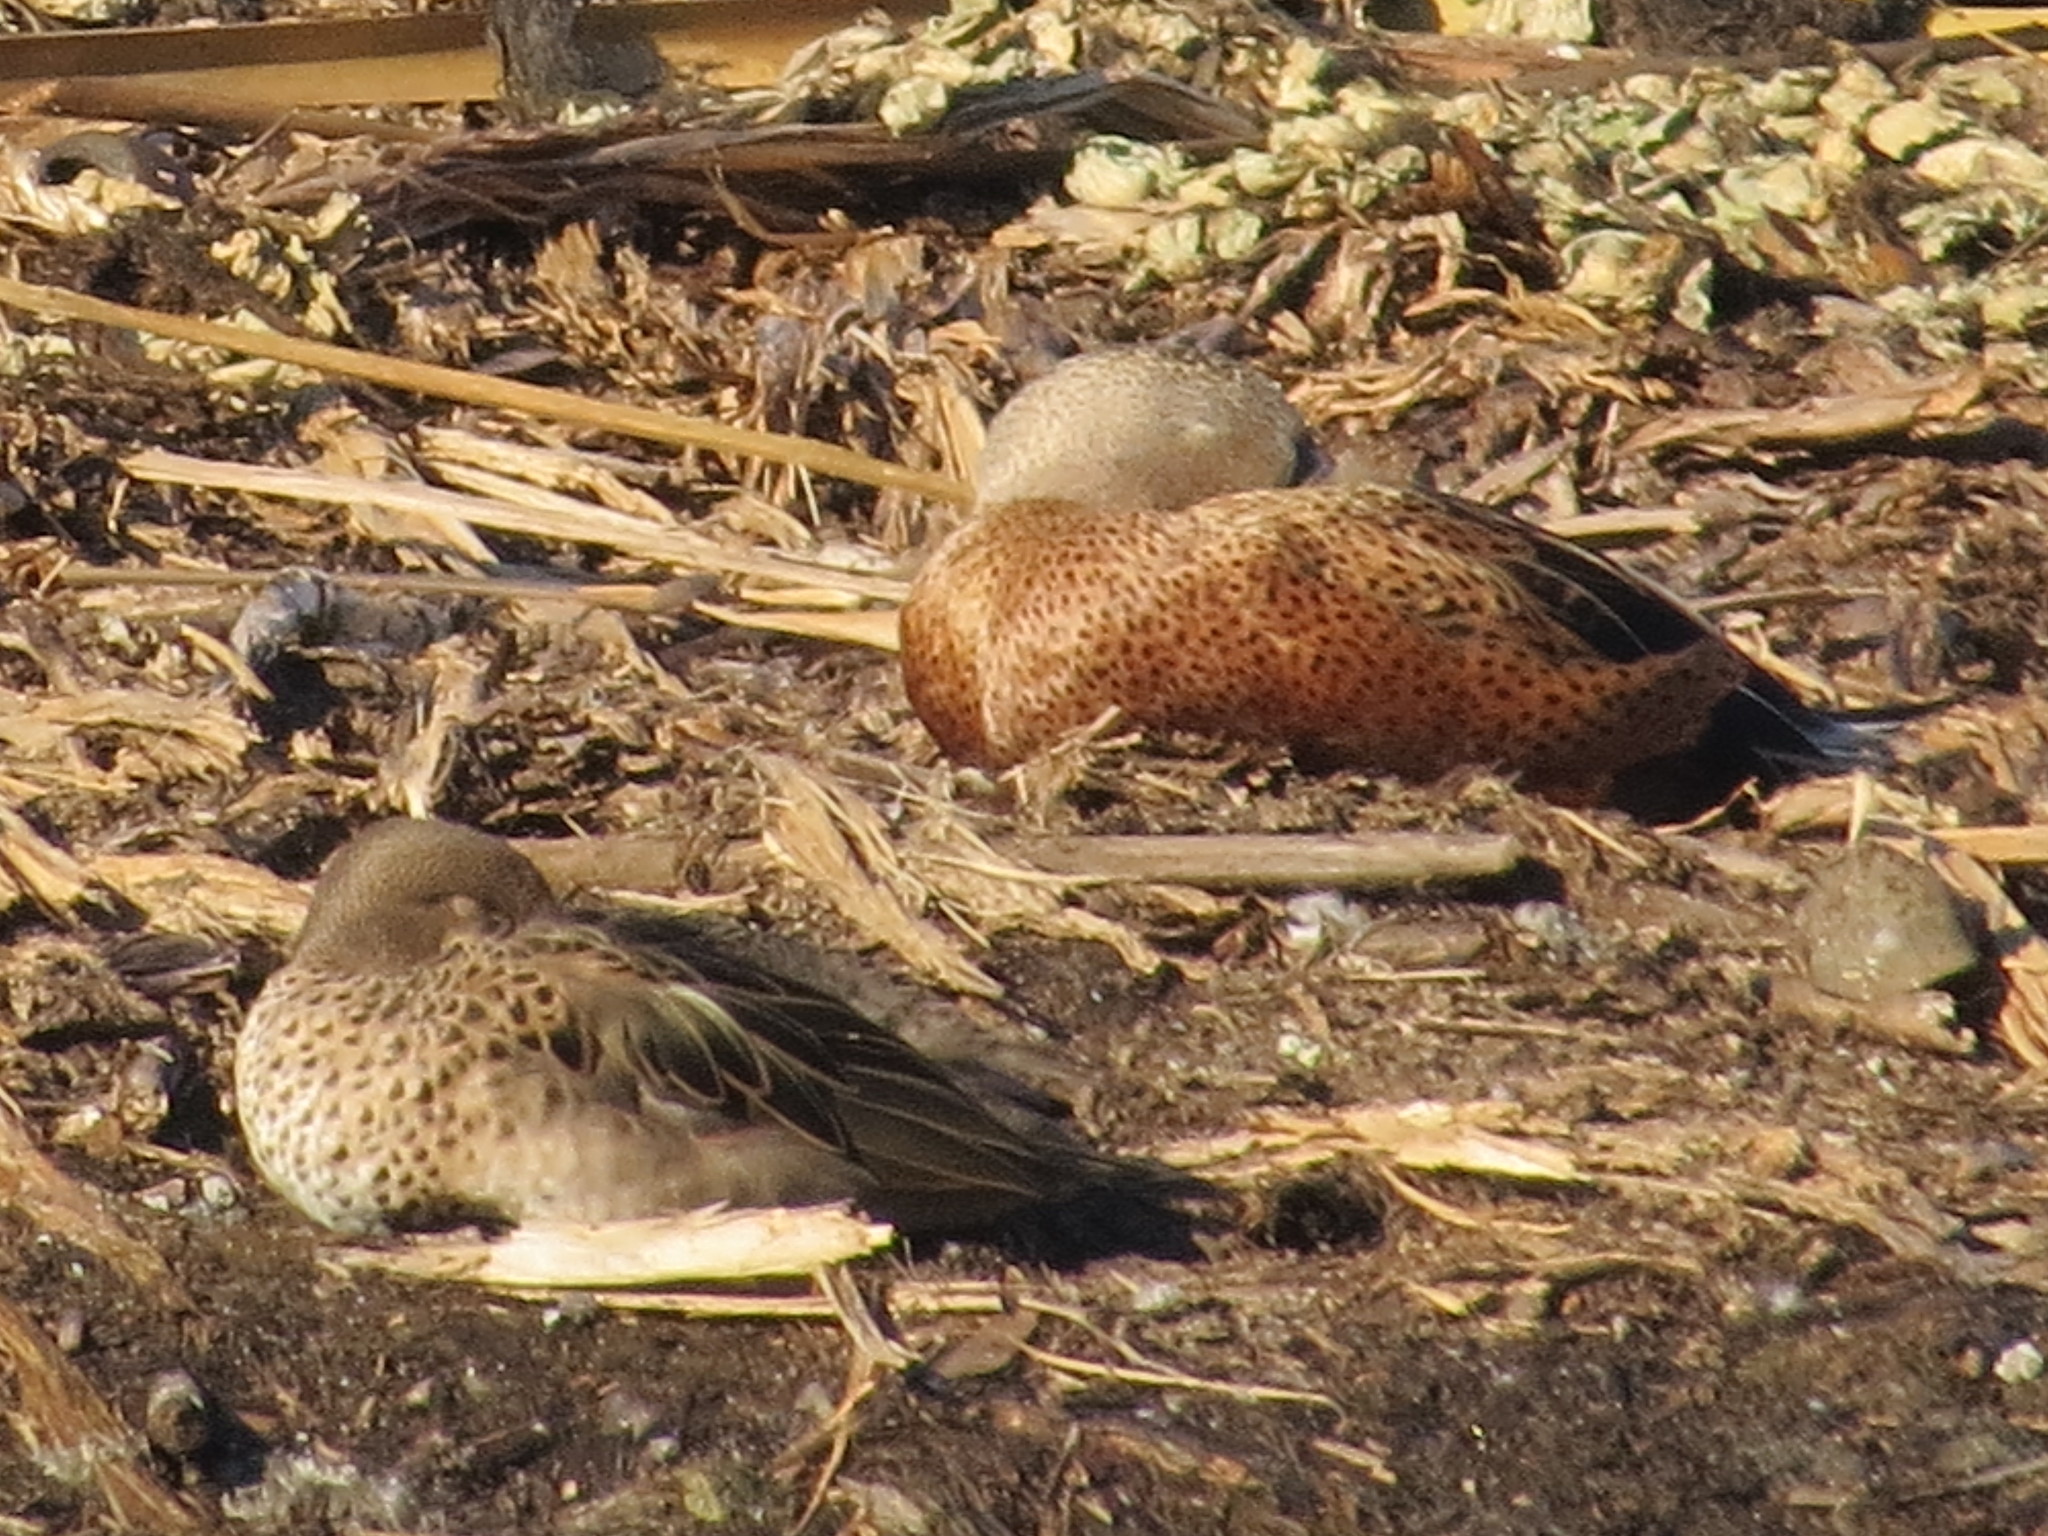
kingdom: Animalia
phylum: Chordata
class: Aves
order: Anseriformes
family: Anatidae
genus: Spatula
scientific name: Spatula platalea
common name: Red shoveler
